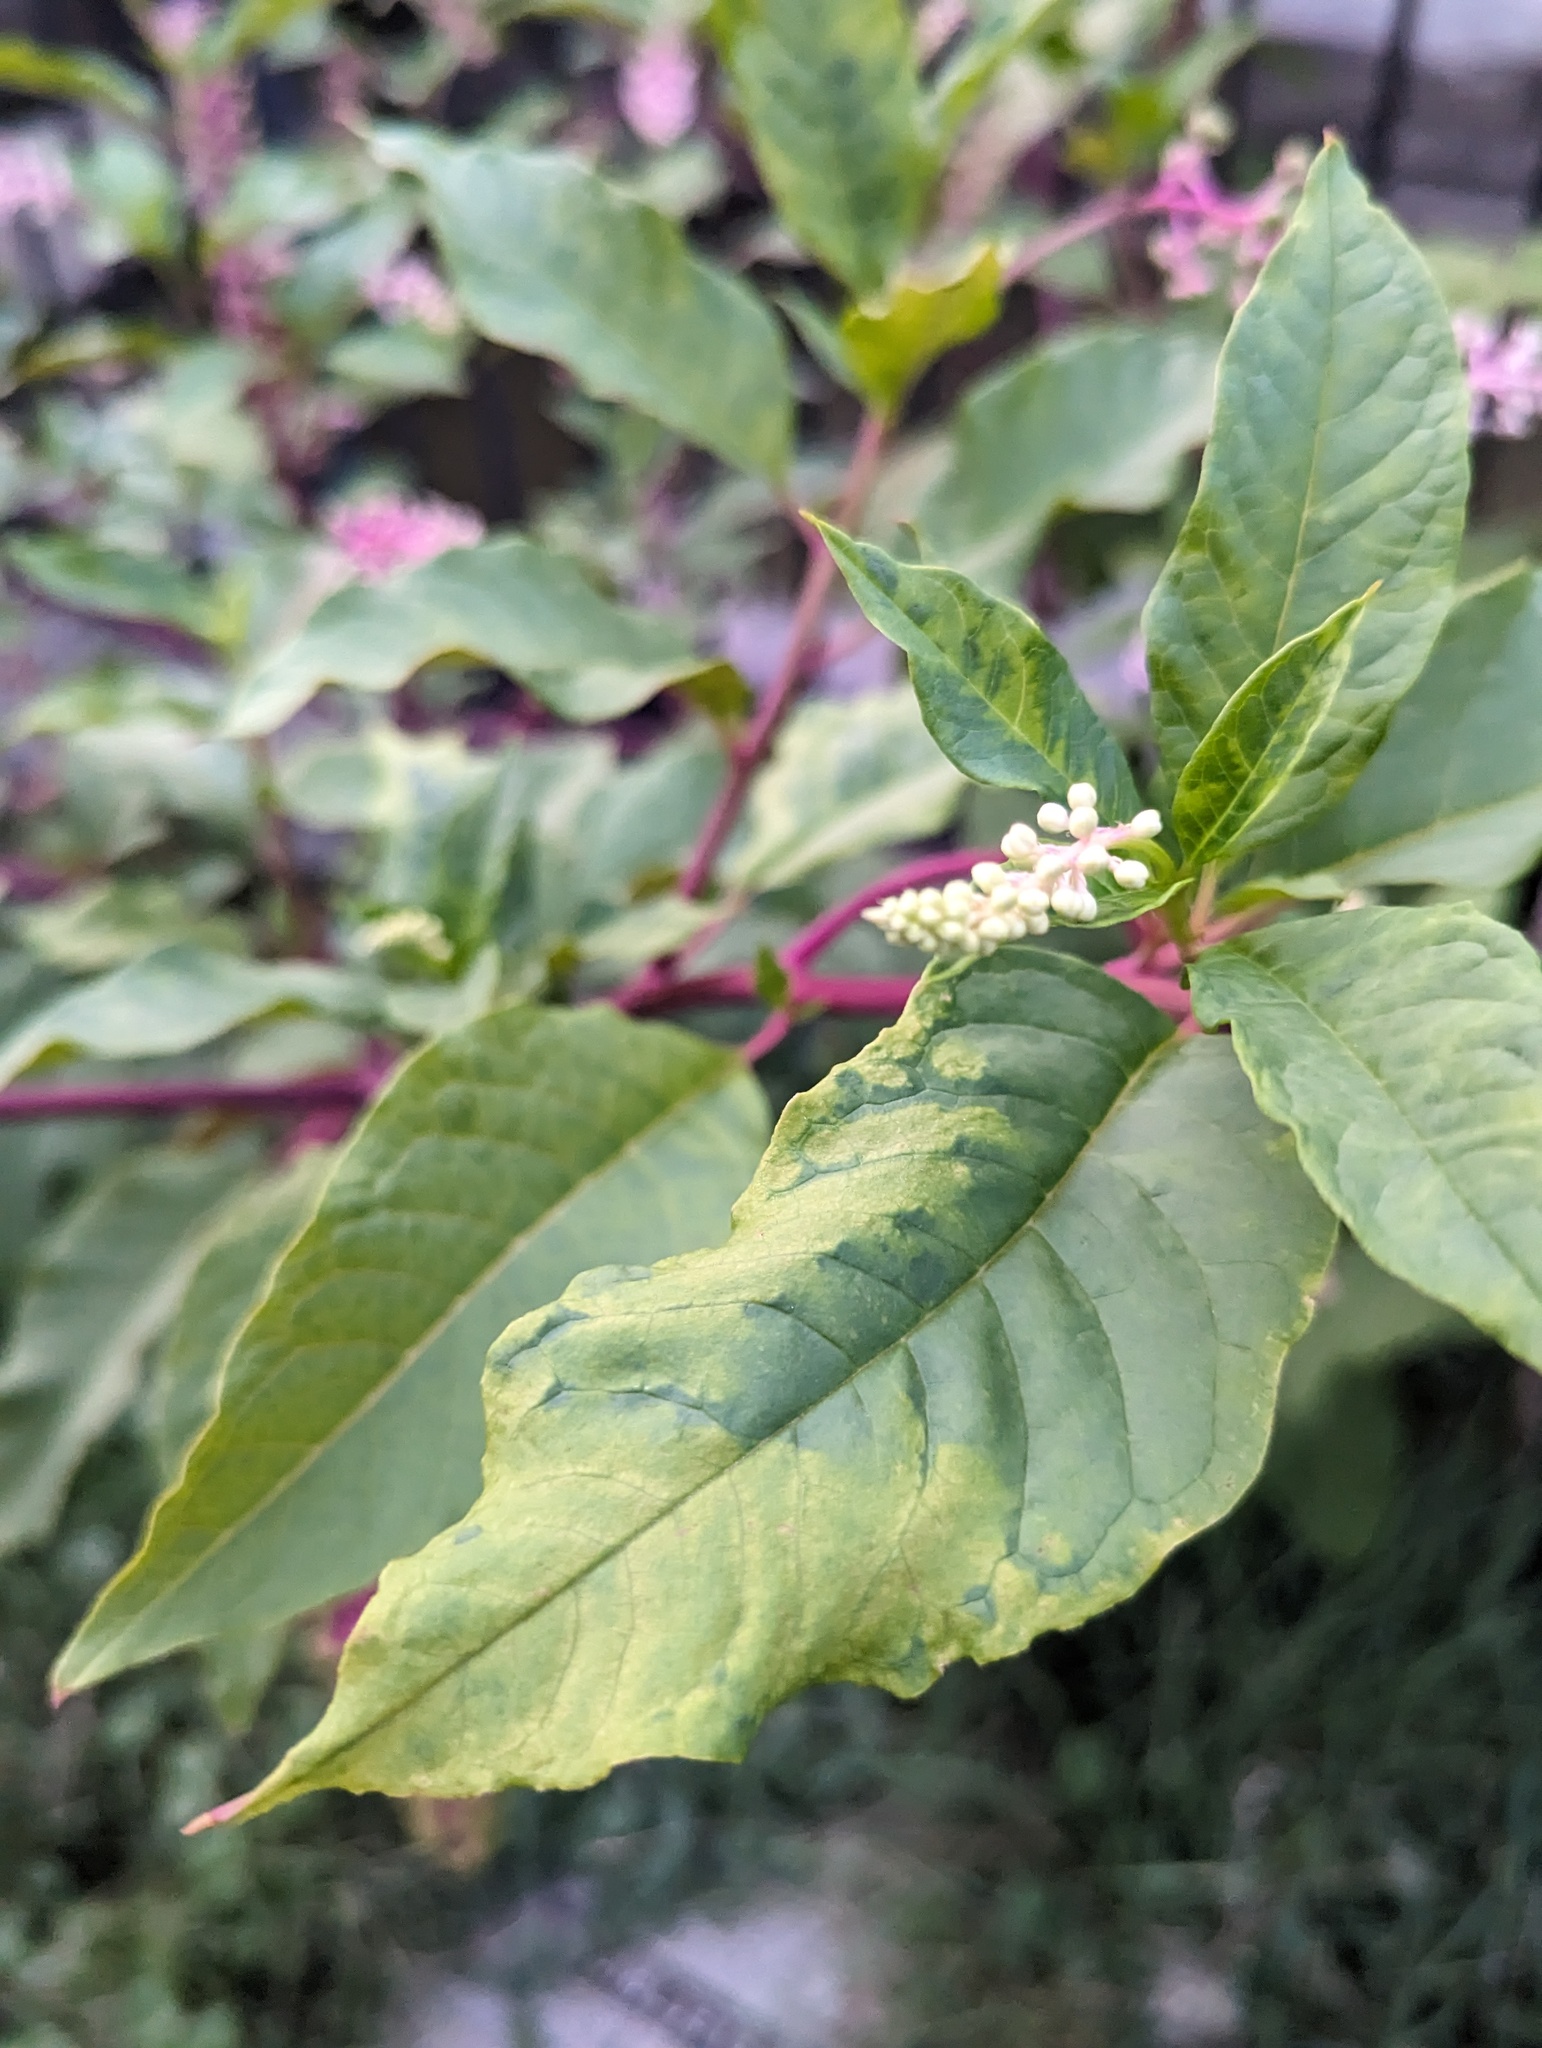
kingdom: Plantae
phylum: Tracheophyta
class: Magnoliopsida
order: Caryophyllales
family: Phytolaccaceae
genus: Phytolacca
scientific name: Phytolacca americana
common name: American pokeweed
